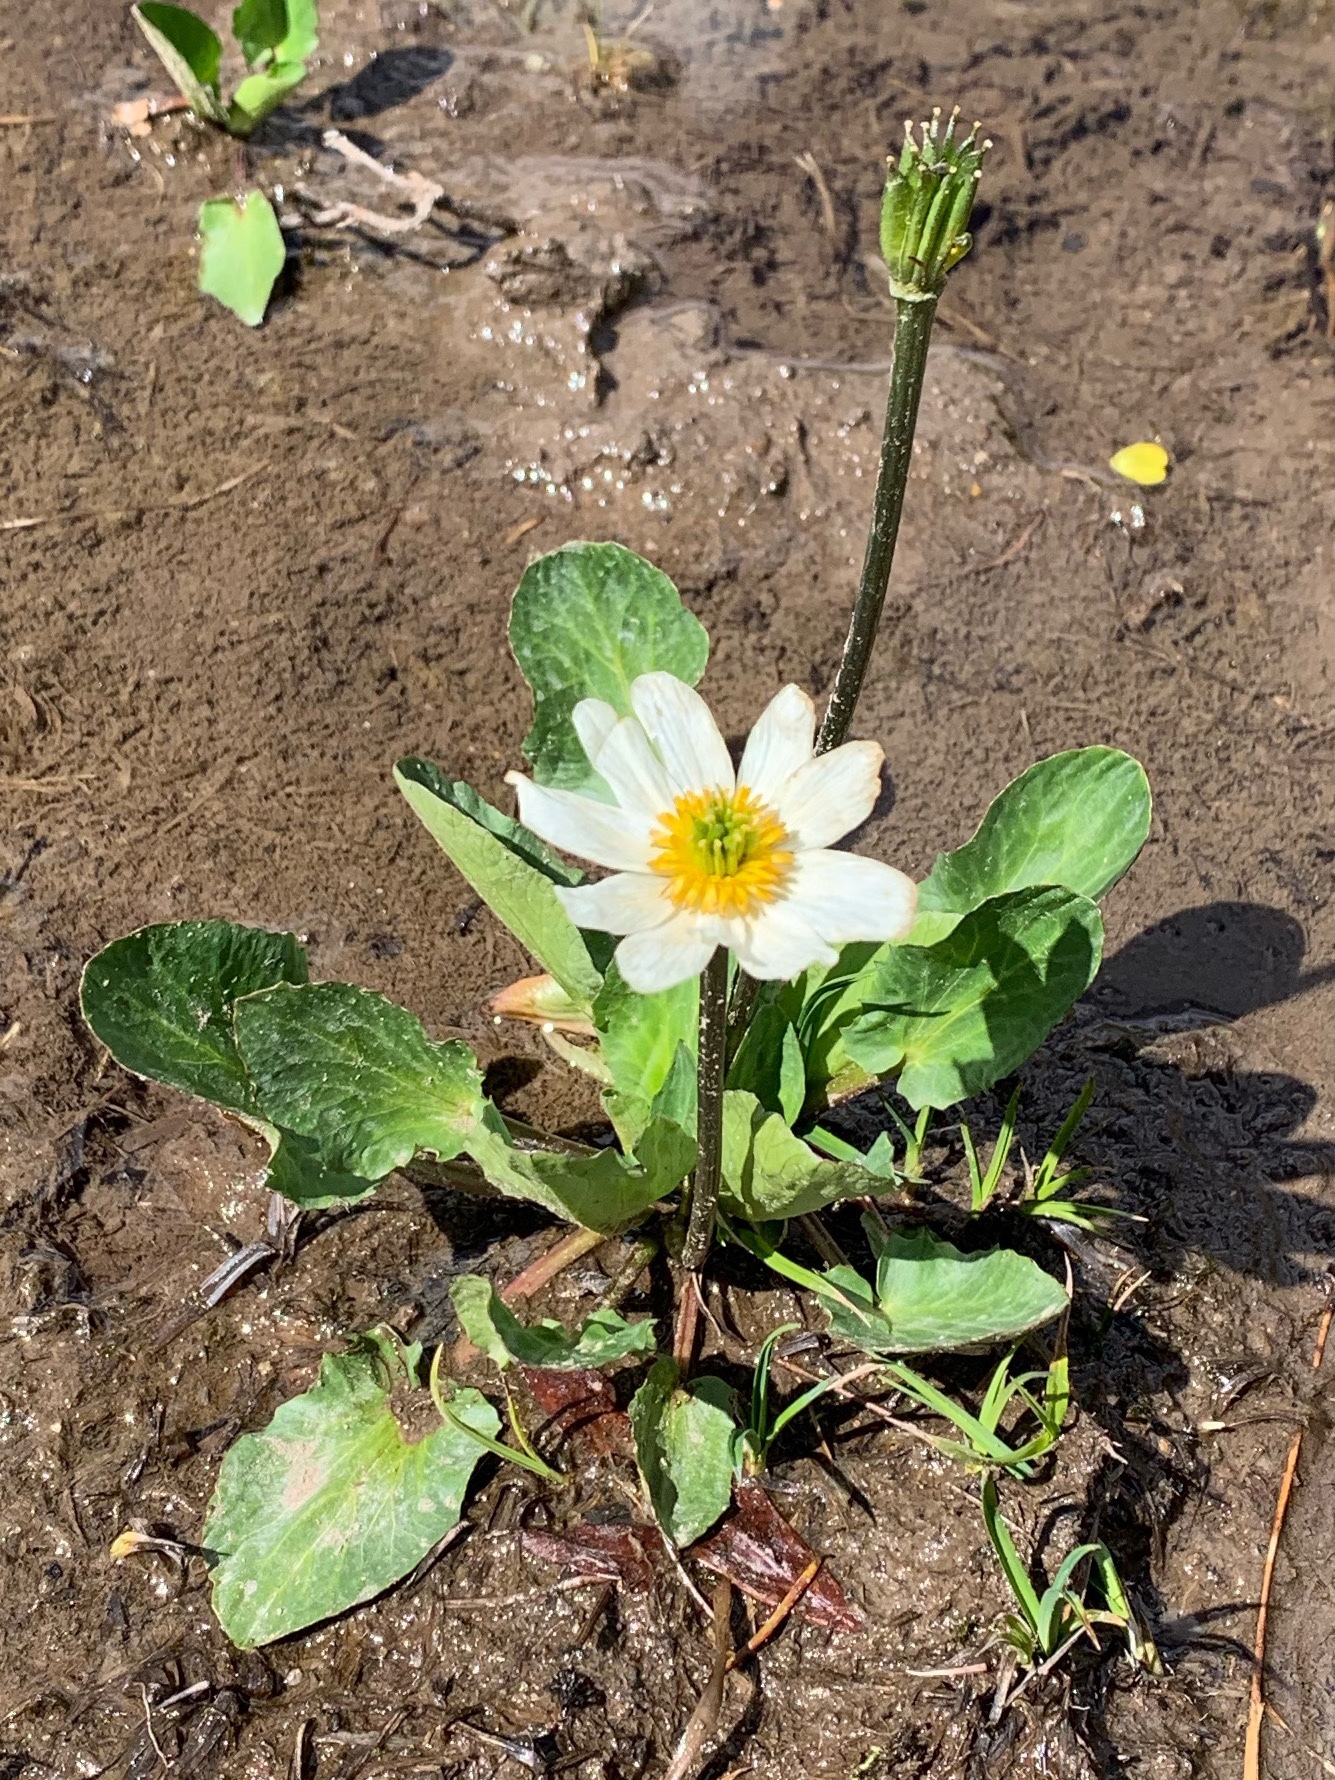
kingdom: Plantae
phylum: Tracheophyta
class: Magnoliopsida
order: Ranunculales
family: Ranunculaceae
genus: Caltha
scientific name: Caltha leptosepala
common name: Elkslip
